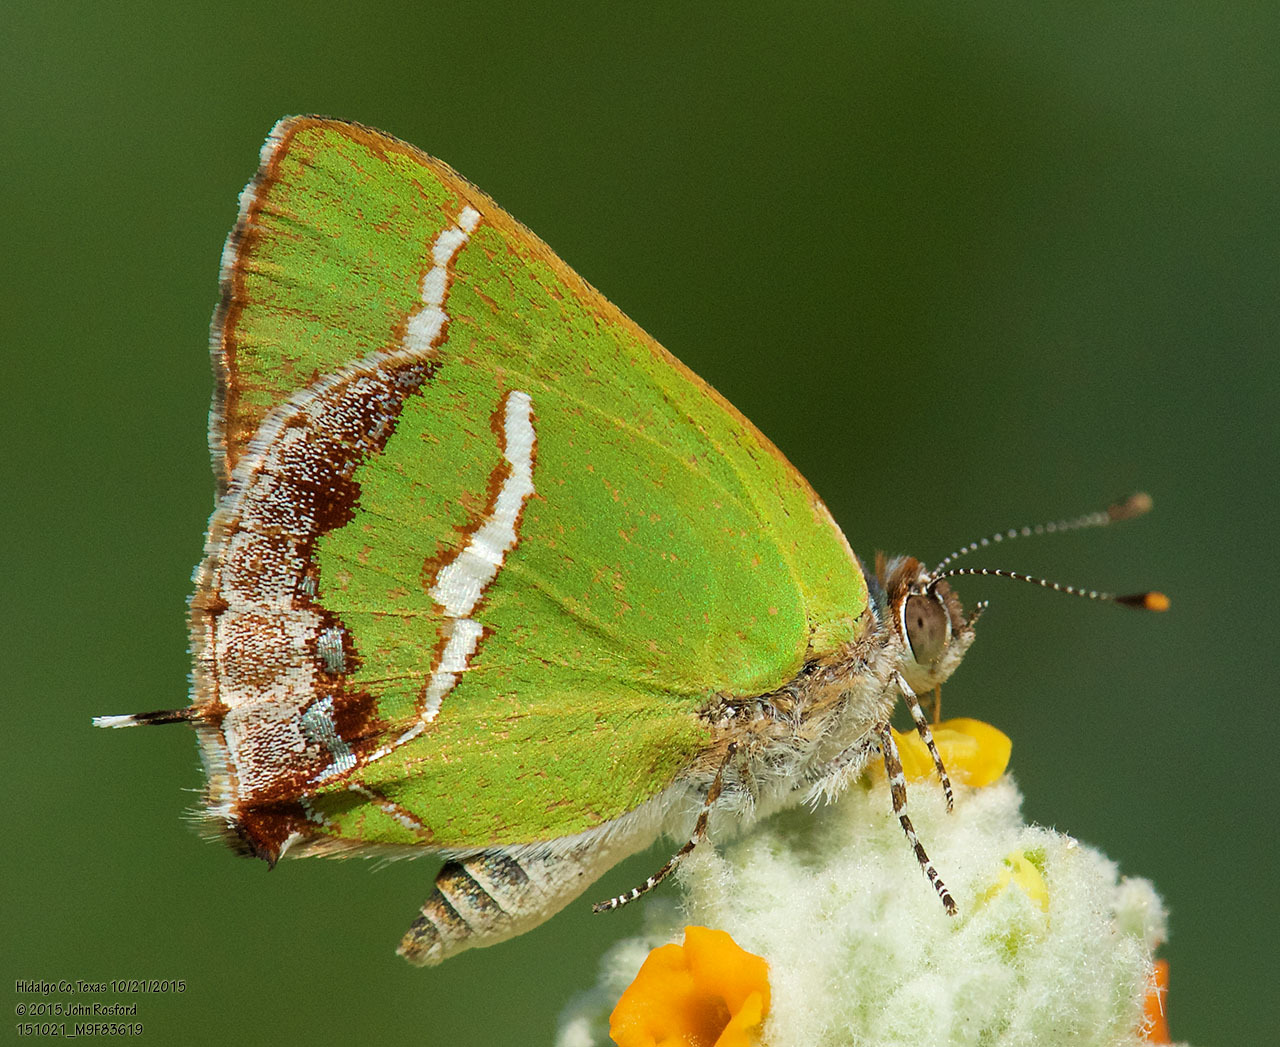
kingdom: Animalia
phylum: Arthropoda
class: Insecta
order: Lepidoptera
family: Lycaenidae
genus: Chlorostrymon
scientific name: Chlorostrymon simaethis
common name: Silver-banded hairstreak
